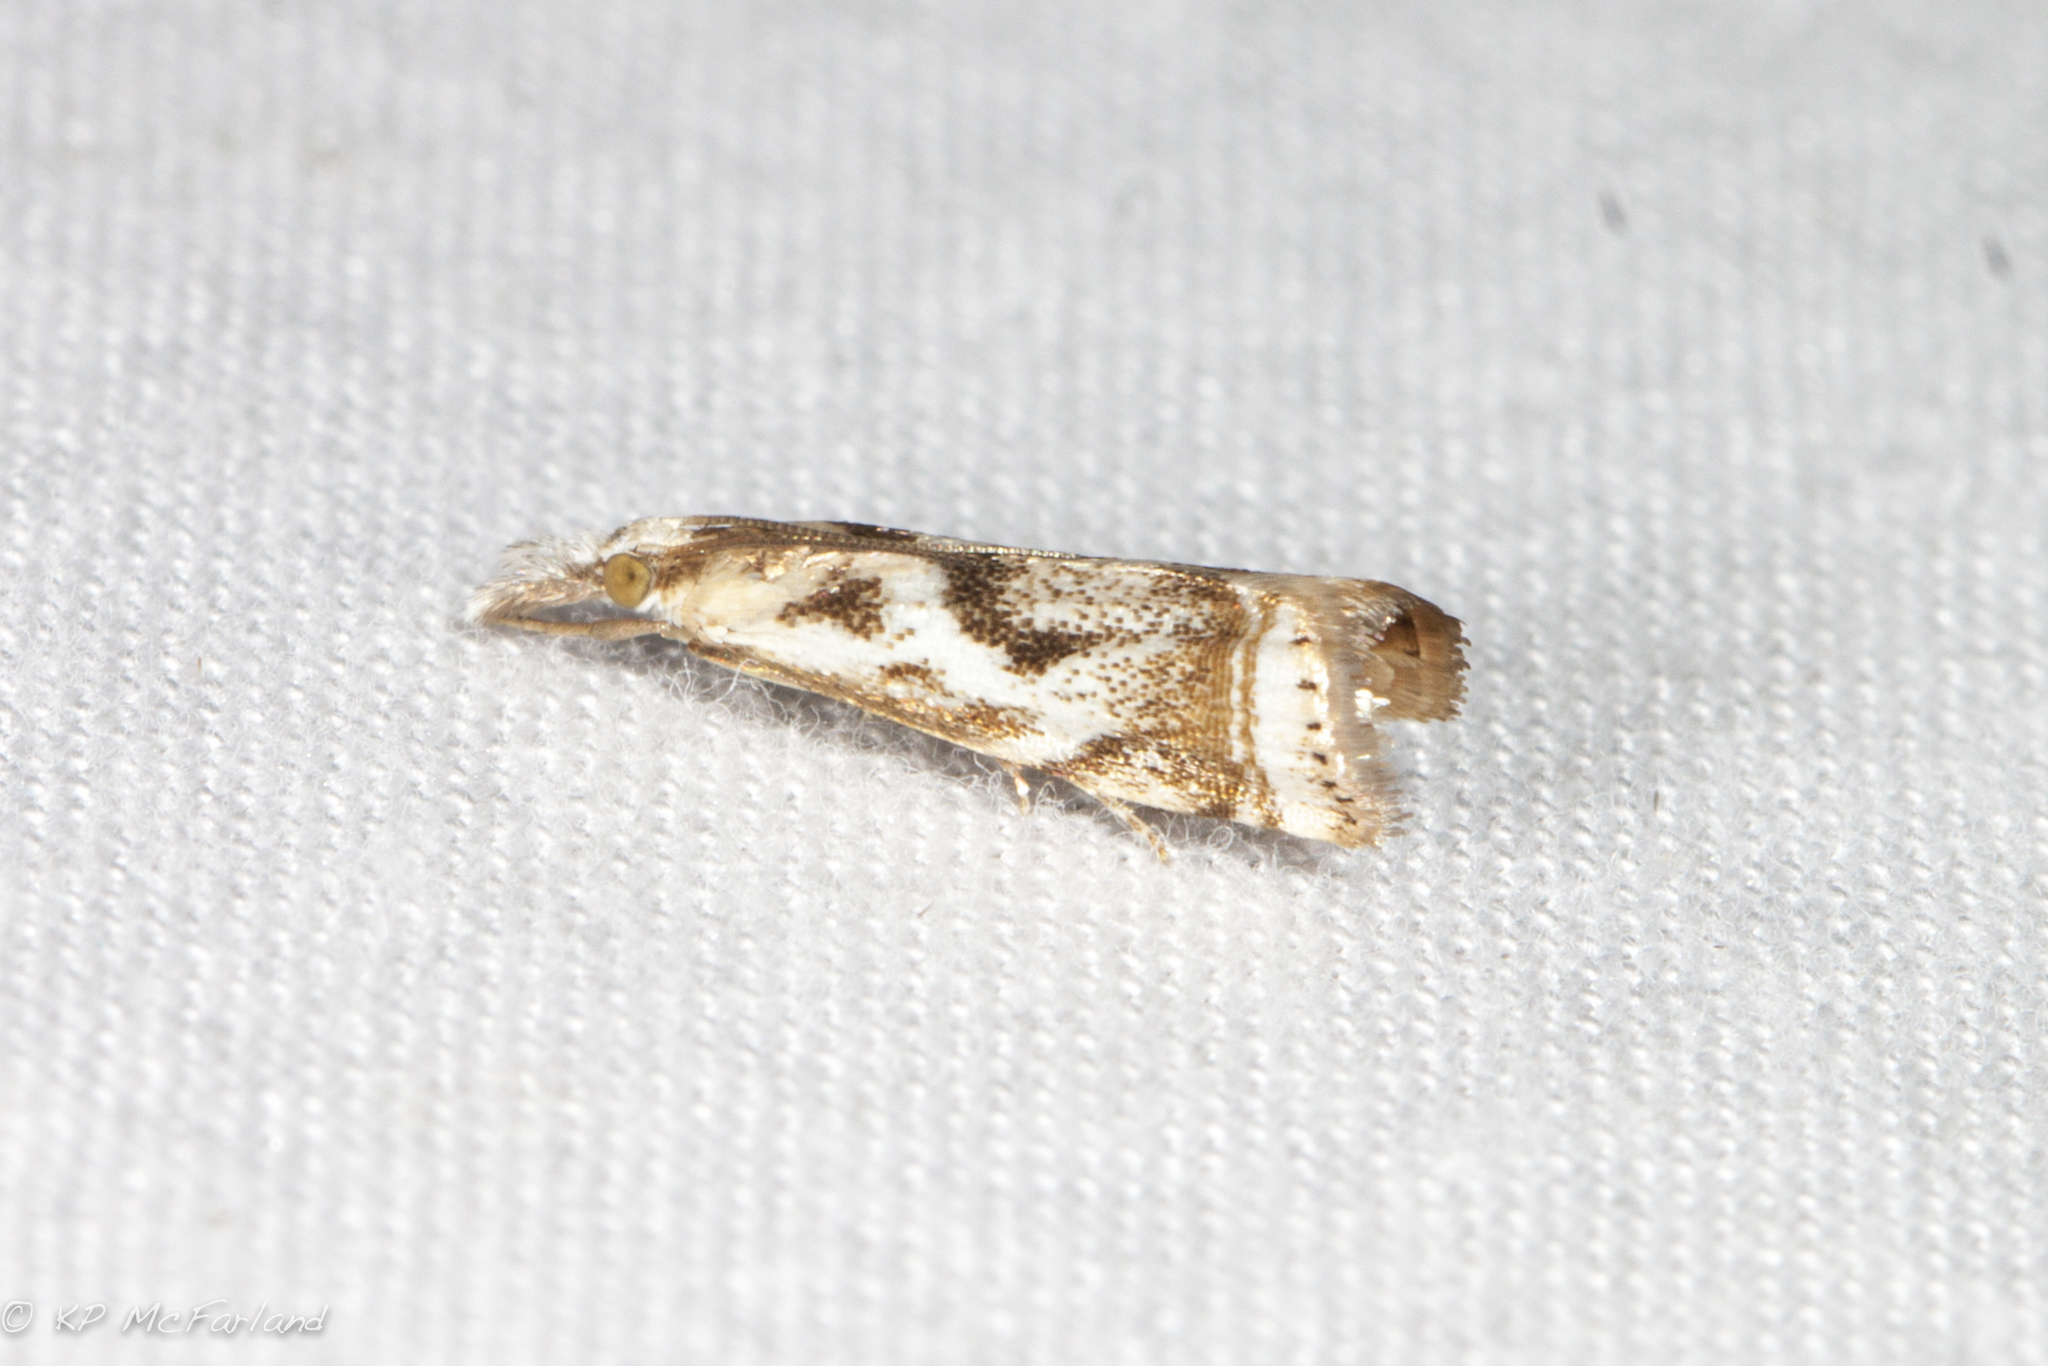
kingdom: Animalia
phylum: Arthropoda
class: Insecta
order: Lepidoptera
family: Crambidae
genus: Microcrambus
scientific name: Microcrambus elegans
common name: Elegant grass-veneer
